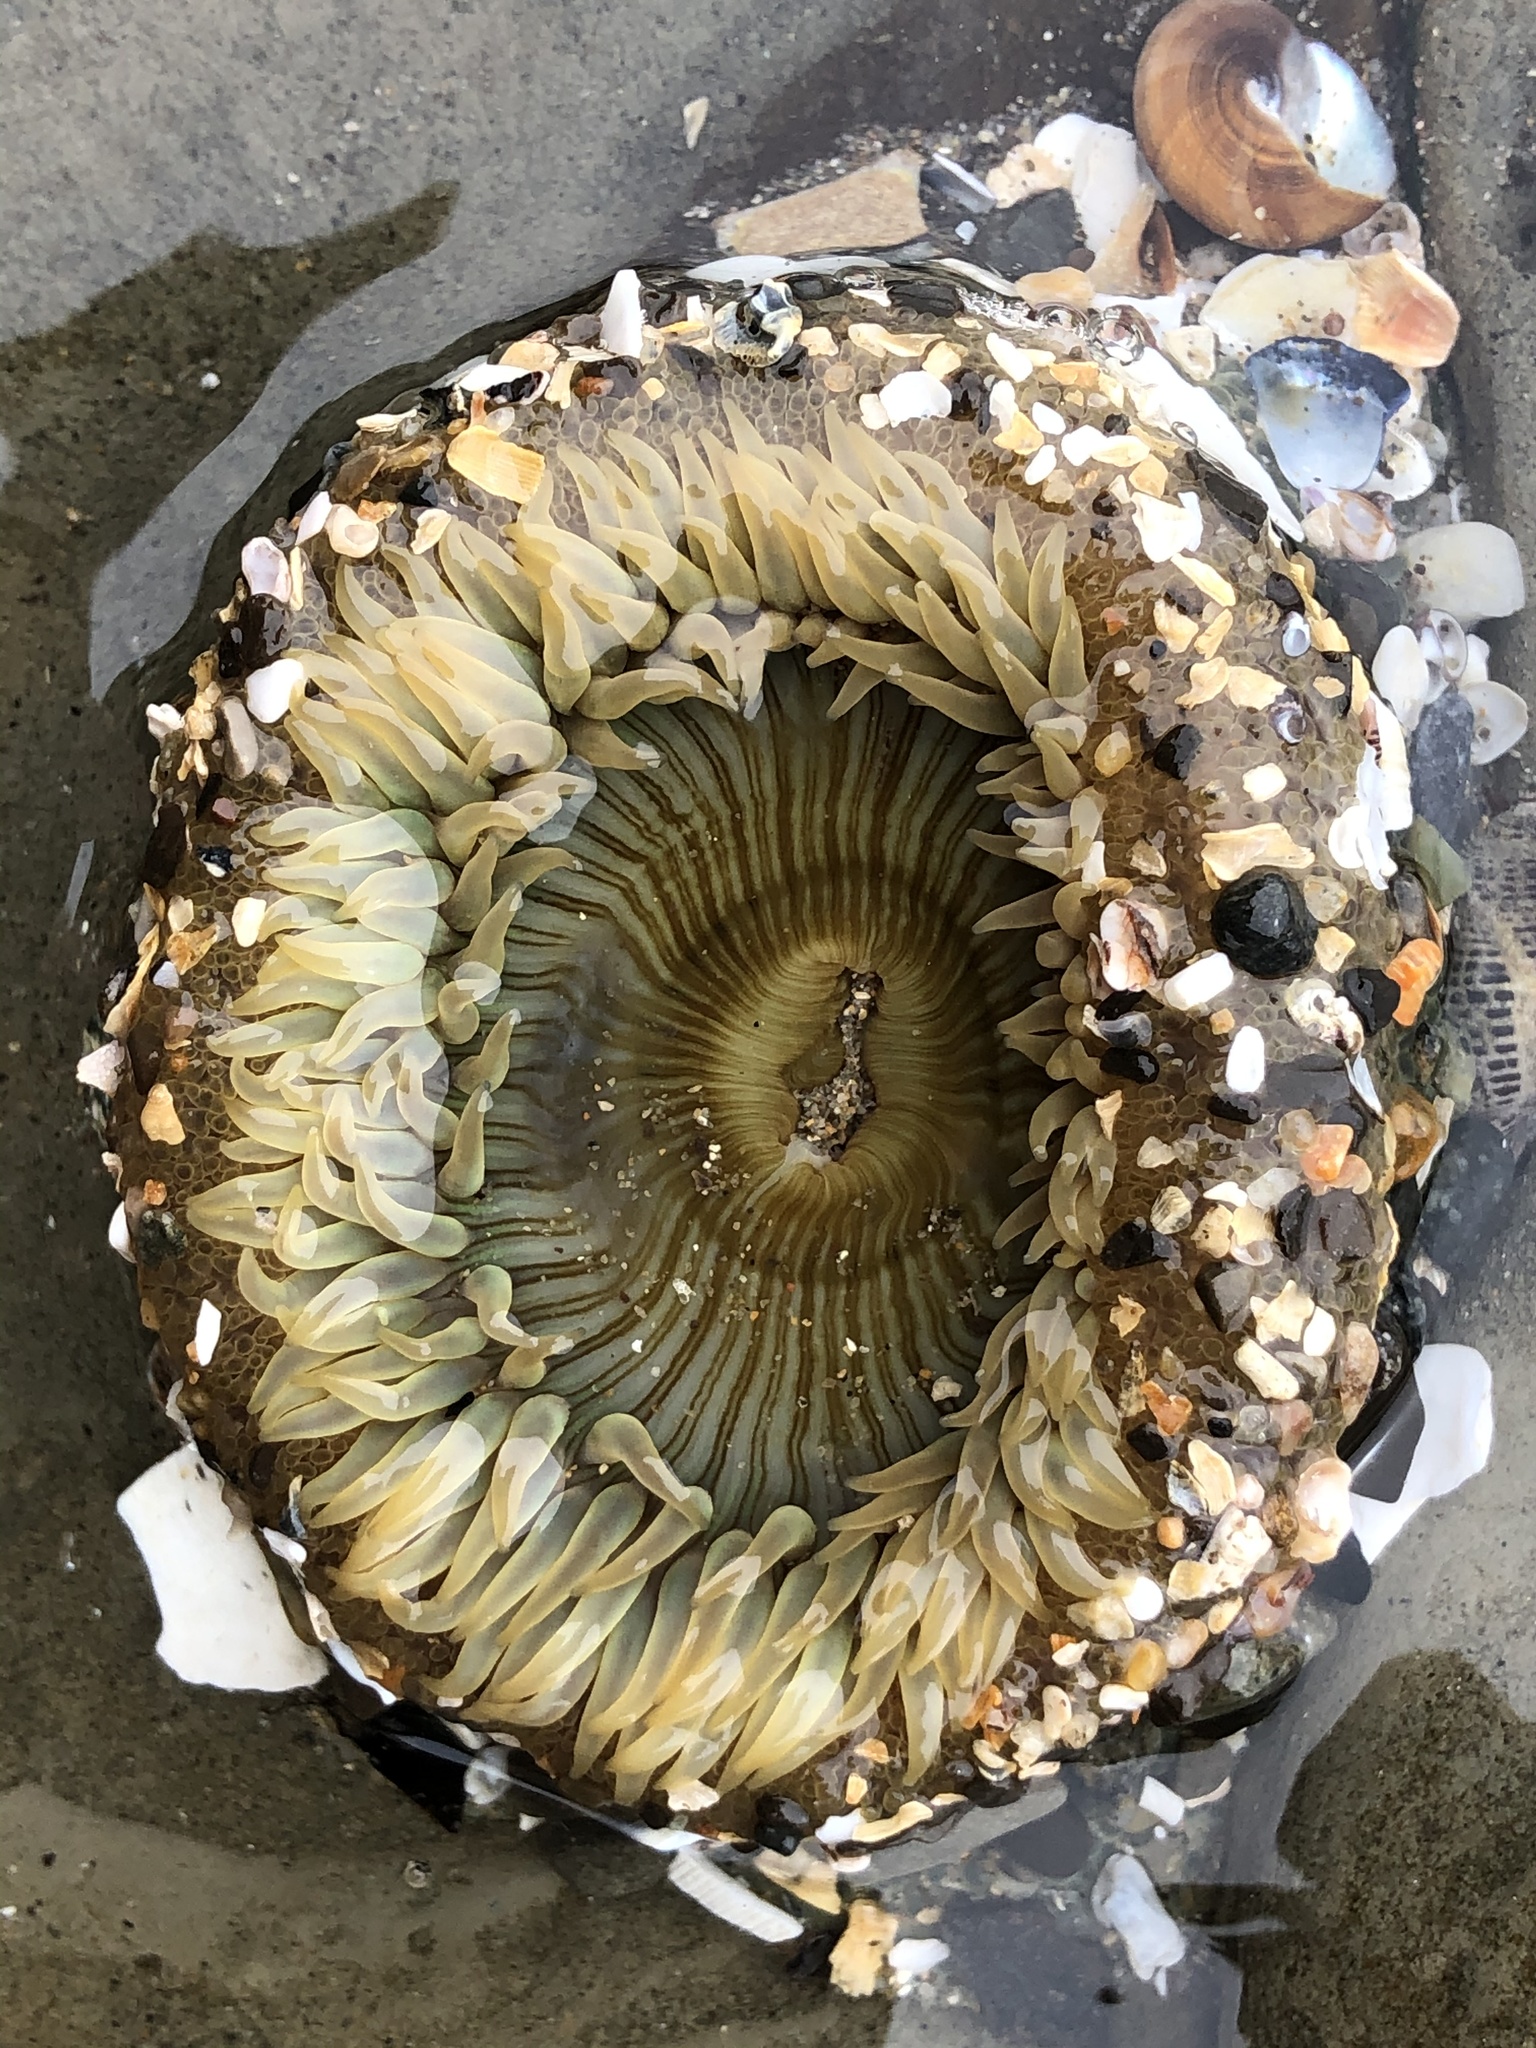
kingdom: Animalia
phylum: Cnidaria
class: Anthozoa
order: Actiniaria
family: Actiniidae
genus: Anthopleura
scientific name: Anthopleura sola
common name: Sun anemone
